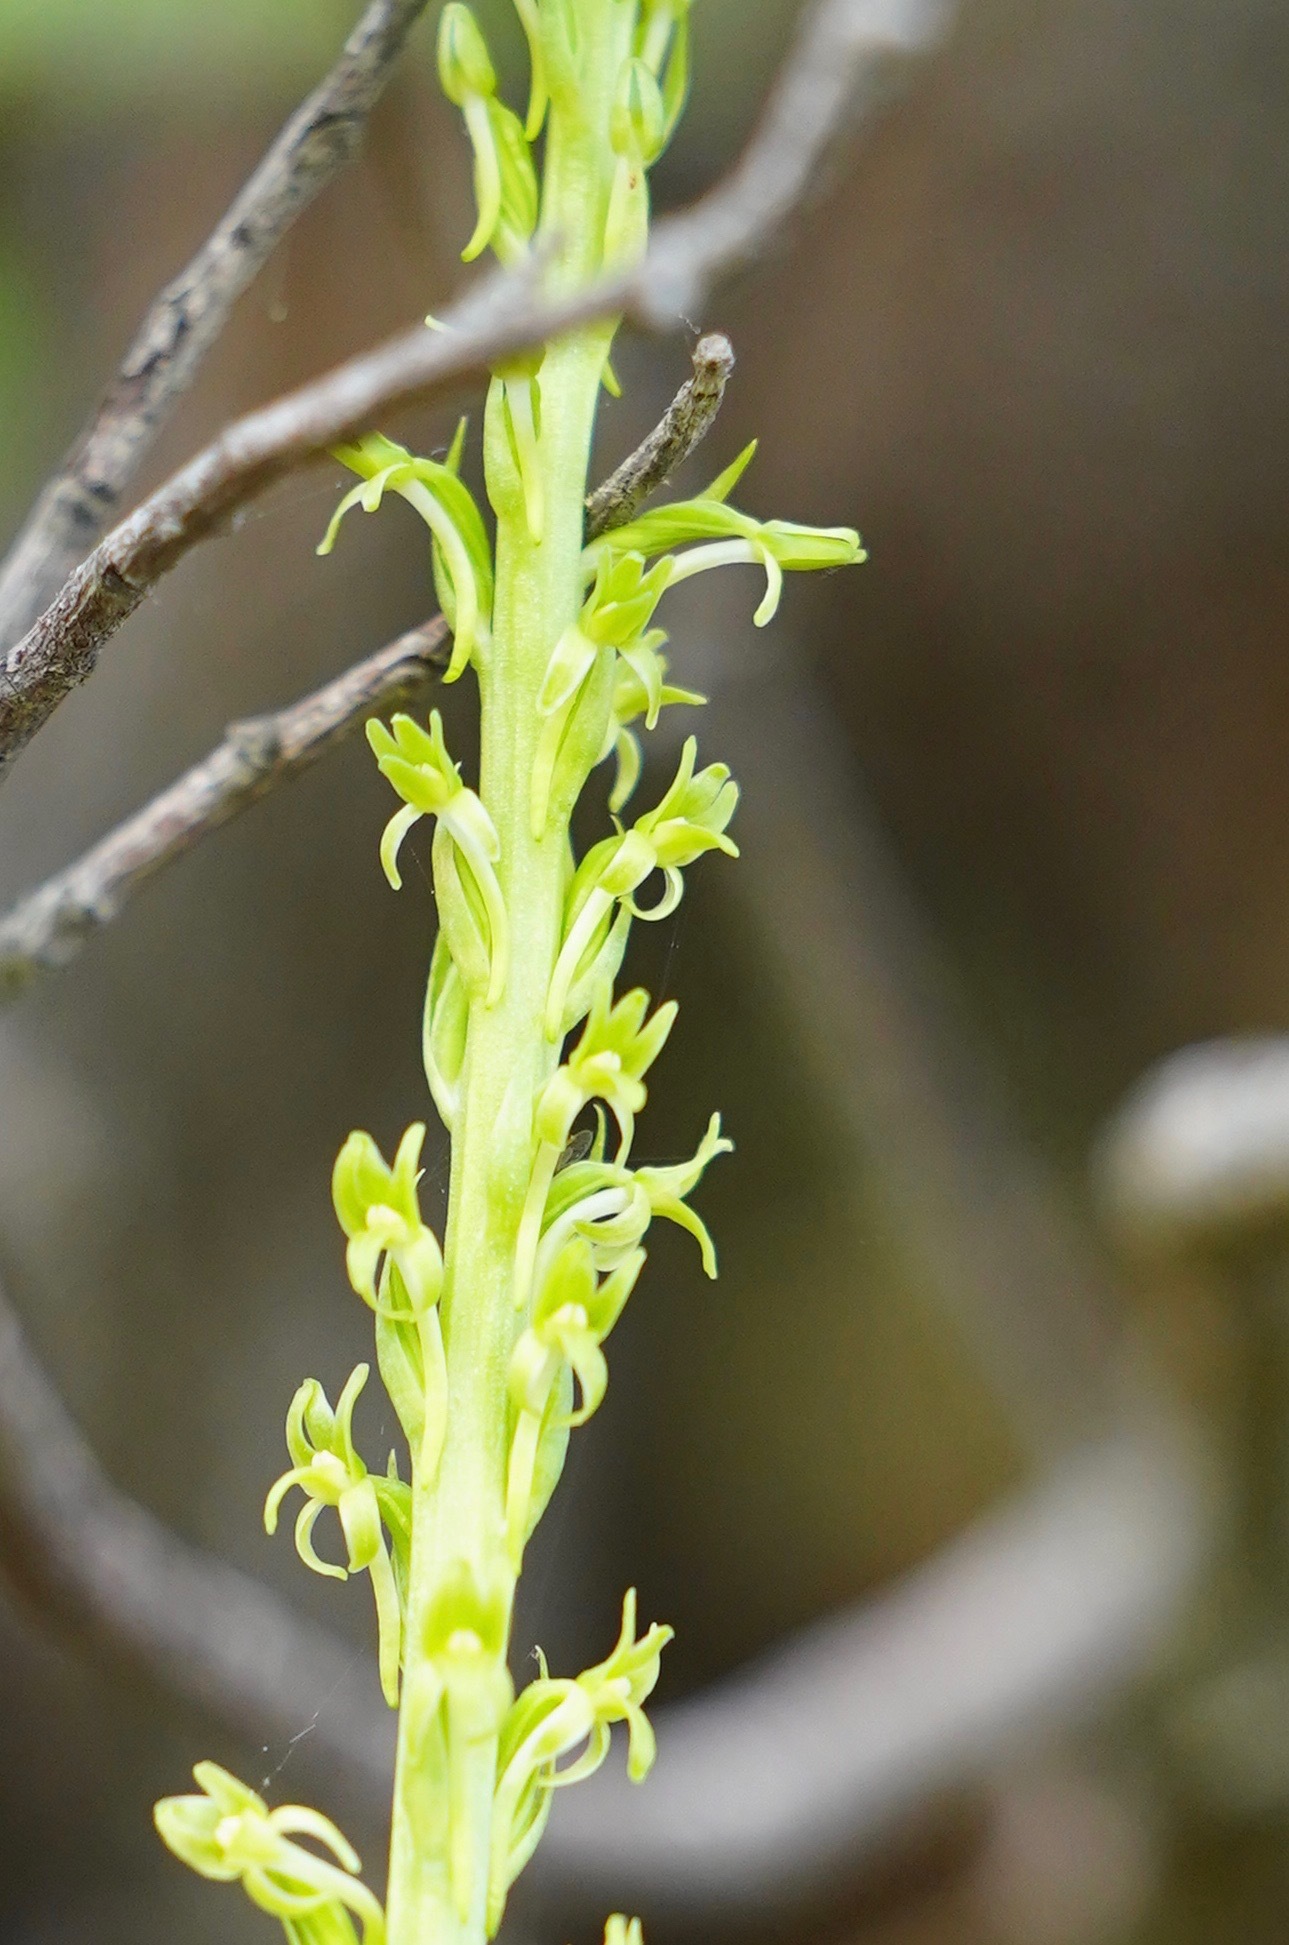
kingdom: Plantae
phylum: Tracheophyta
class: Liliopsida
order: Asparagales
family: Orchidaceae
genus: Platanthera
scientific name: Platanthera elongata
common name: Dense-flowered rein orchid
